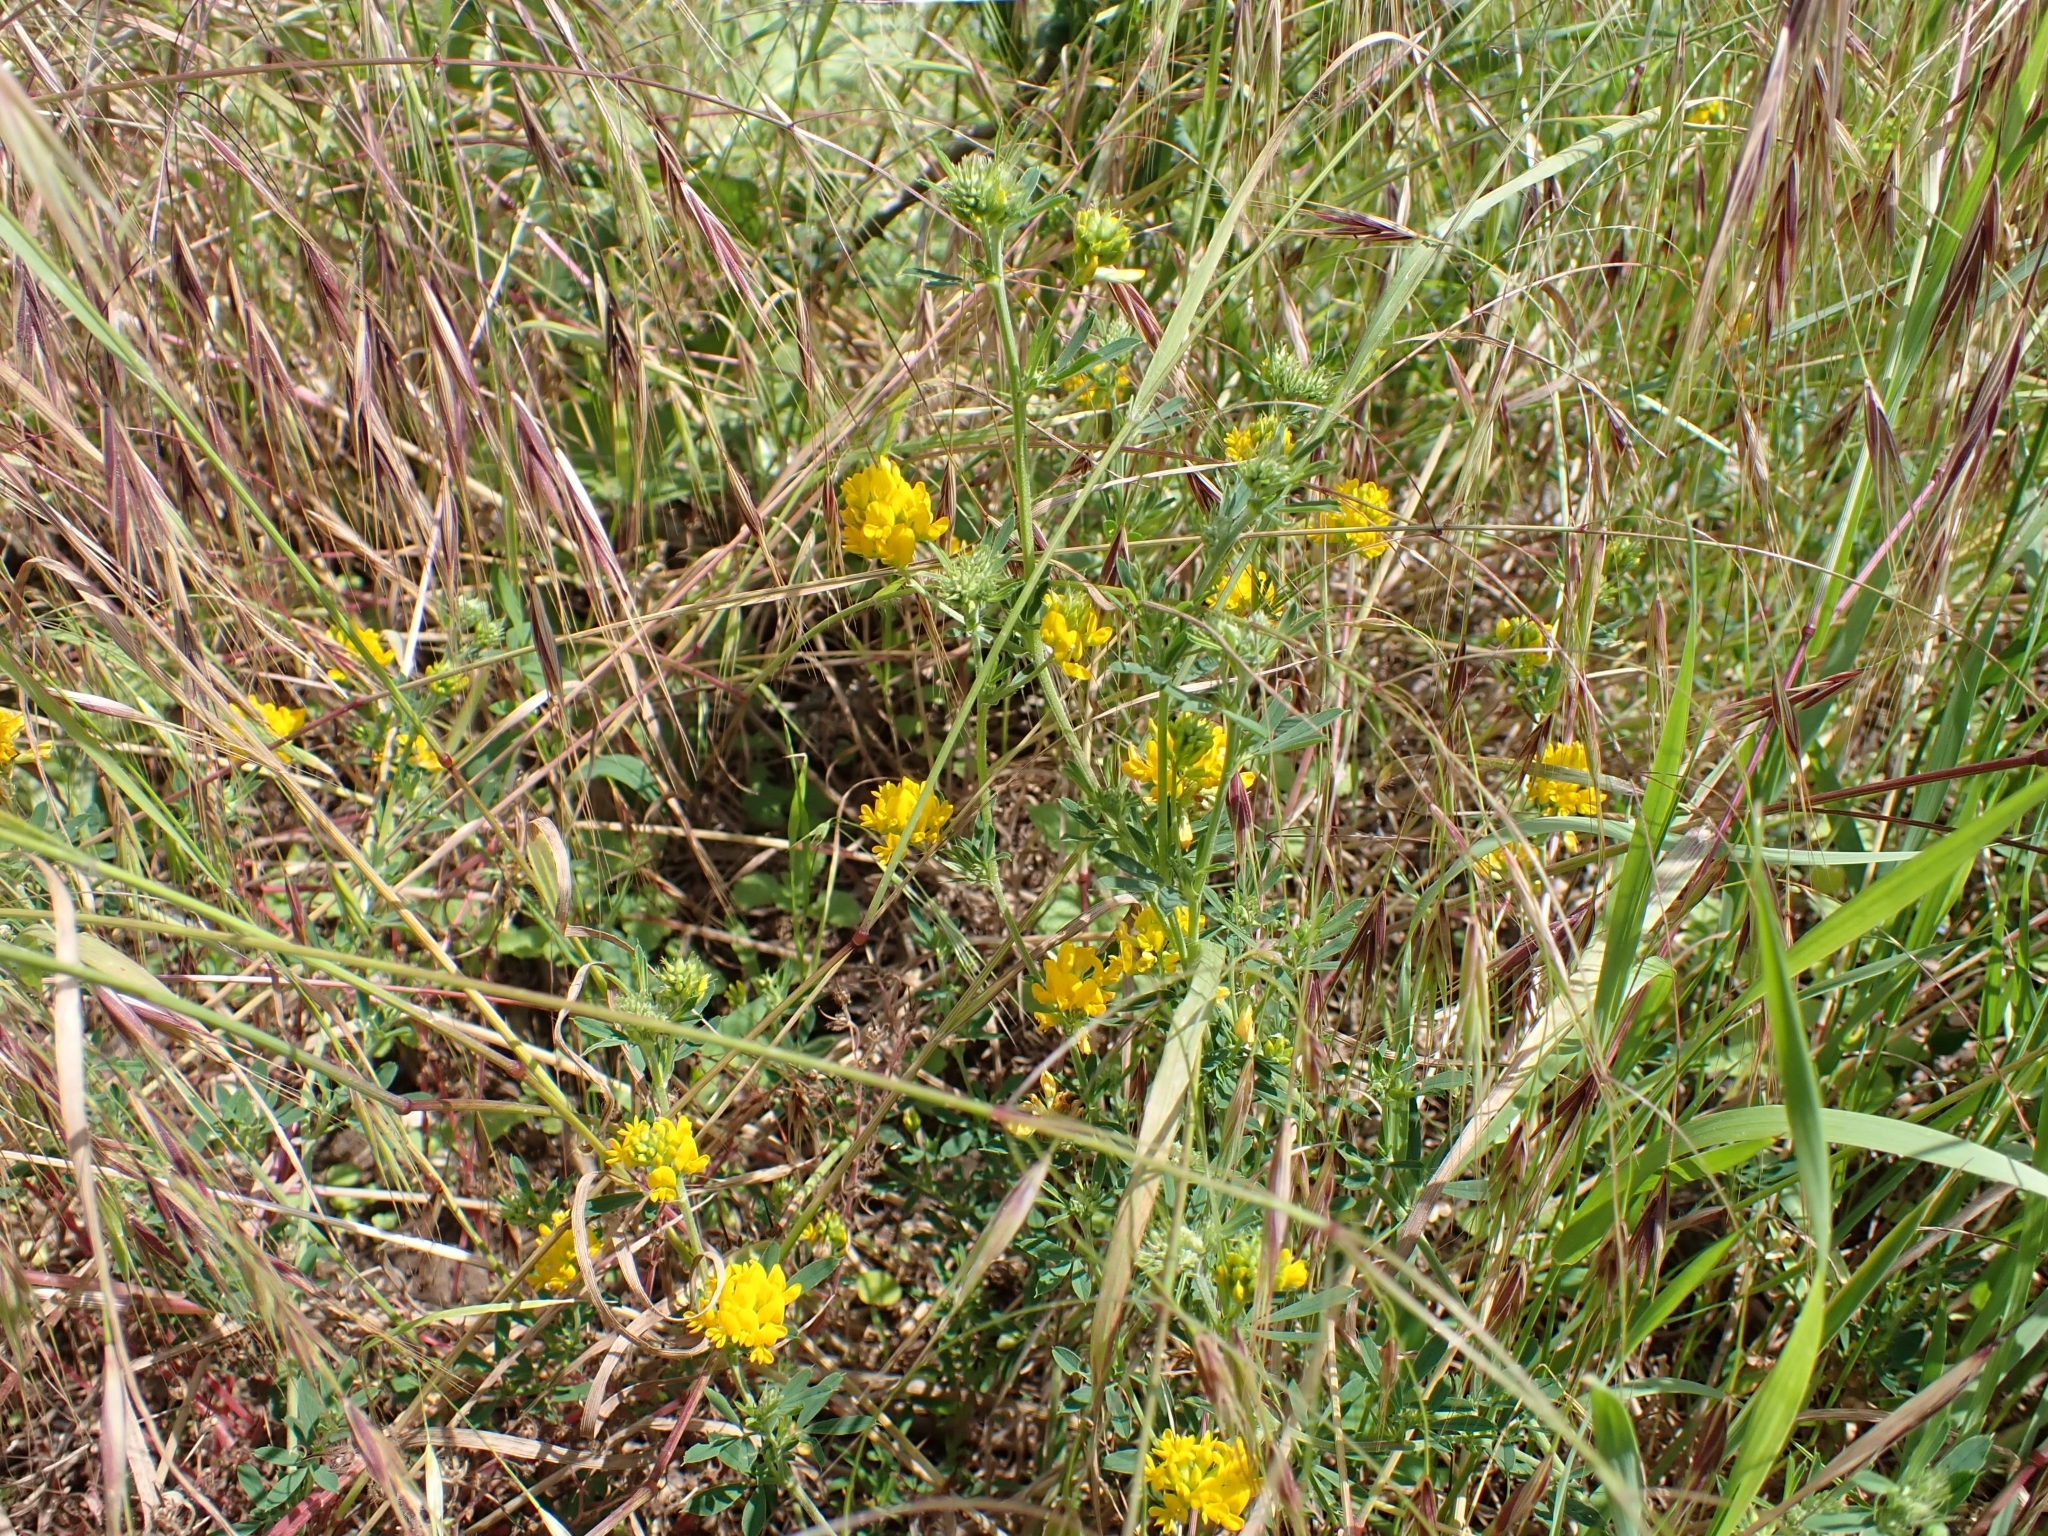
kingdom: Plantae
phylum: Tracheophyta
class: Magnoliopsida
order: Fabales
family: Fabaceae
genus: Medicago
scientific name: Medicago falcata
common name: Sickle medick
